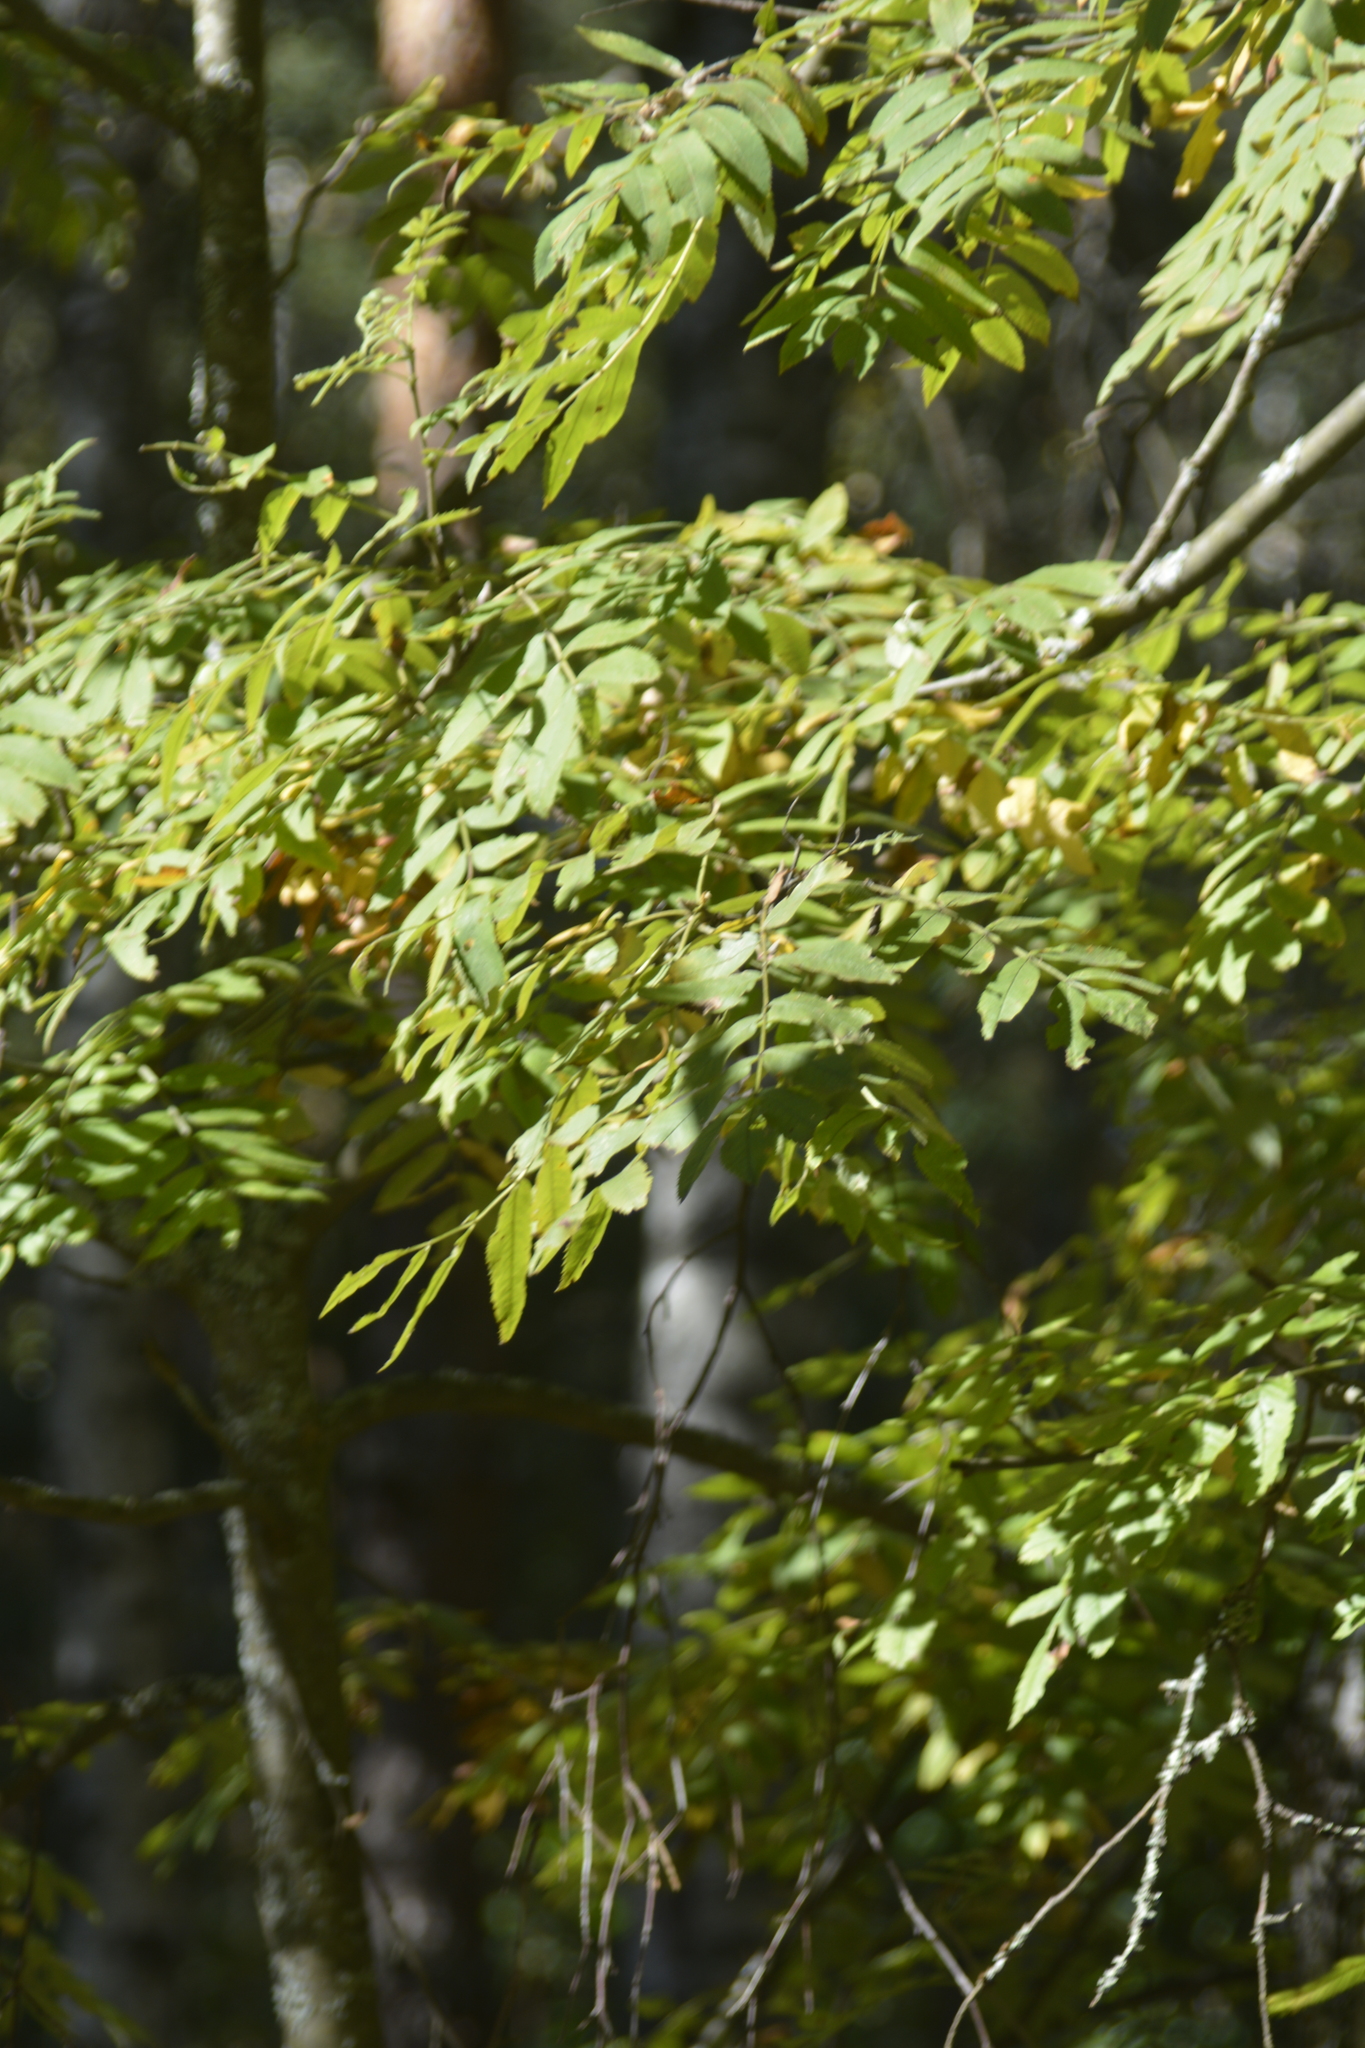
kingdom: Plantae
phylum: Tracheophyta
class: Magnoliopsida
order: Rosales
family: Rosaceae
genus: Sorbus
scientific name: Sorbus aucuparia
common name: Rowan
